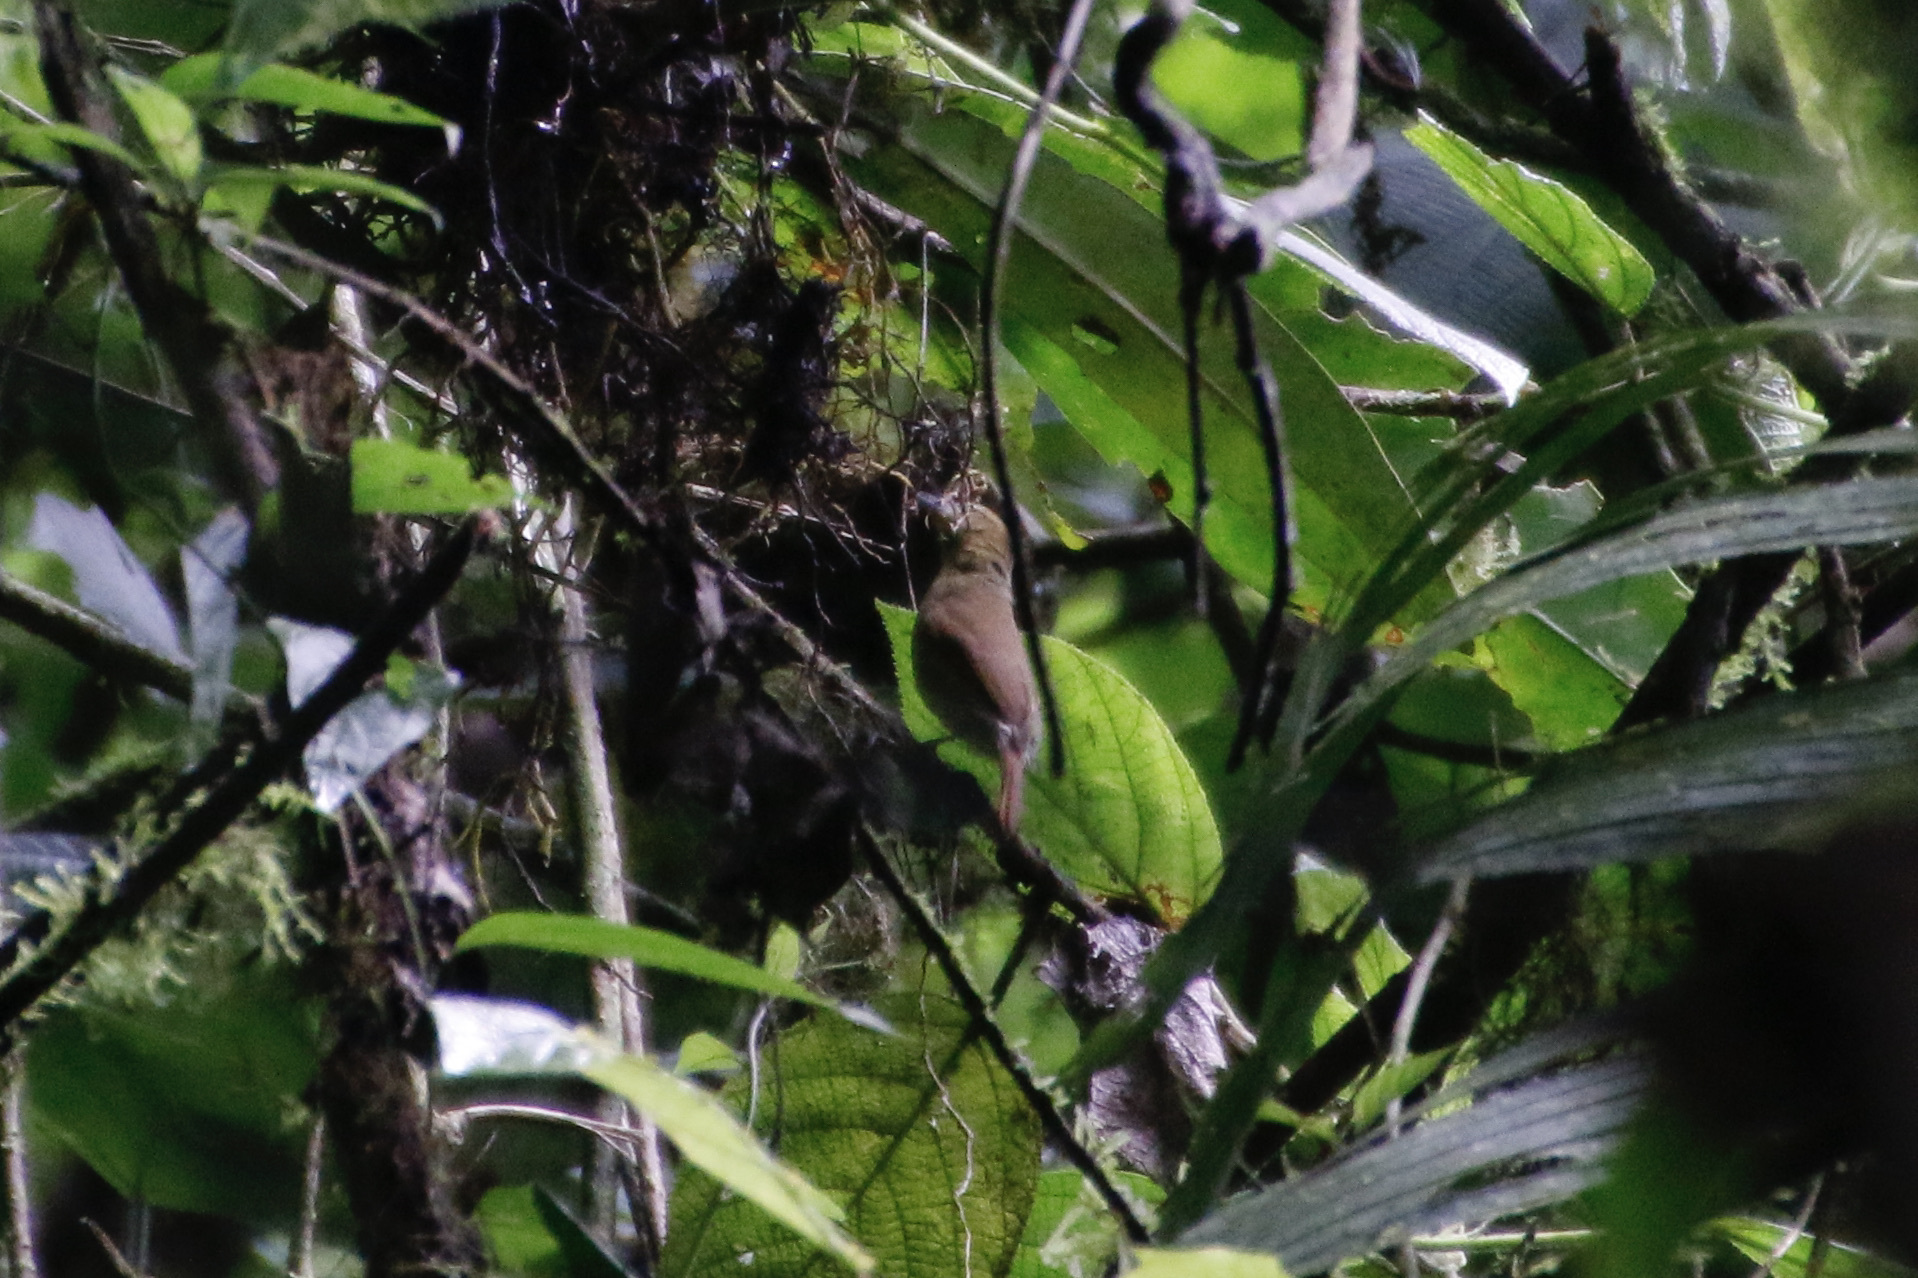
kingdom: Animalia
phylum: Chordata
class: Aves
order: Passeriformes
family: Thamnophilidae
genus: Thamnistes
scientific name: Thamnistes anabatinus
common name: Russet antshrike
